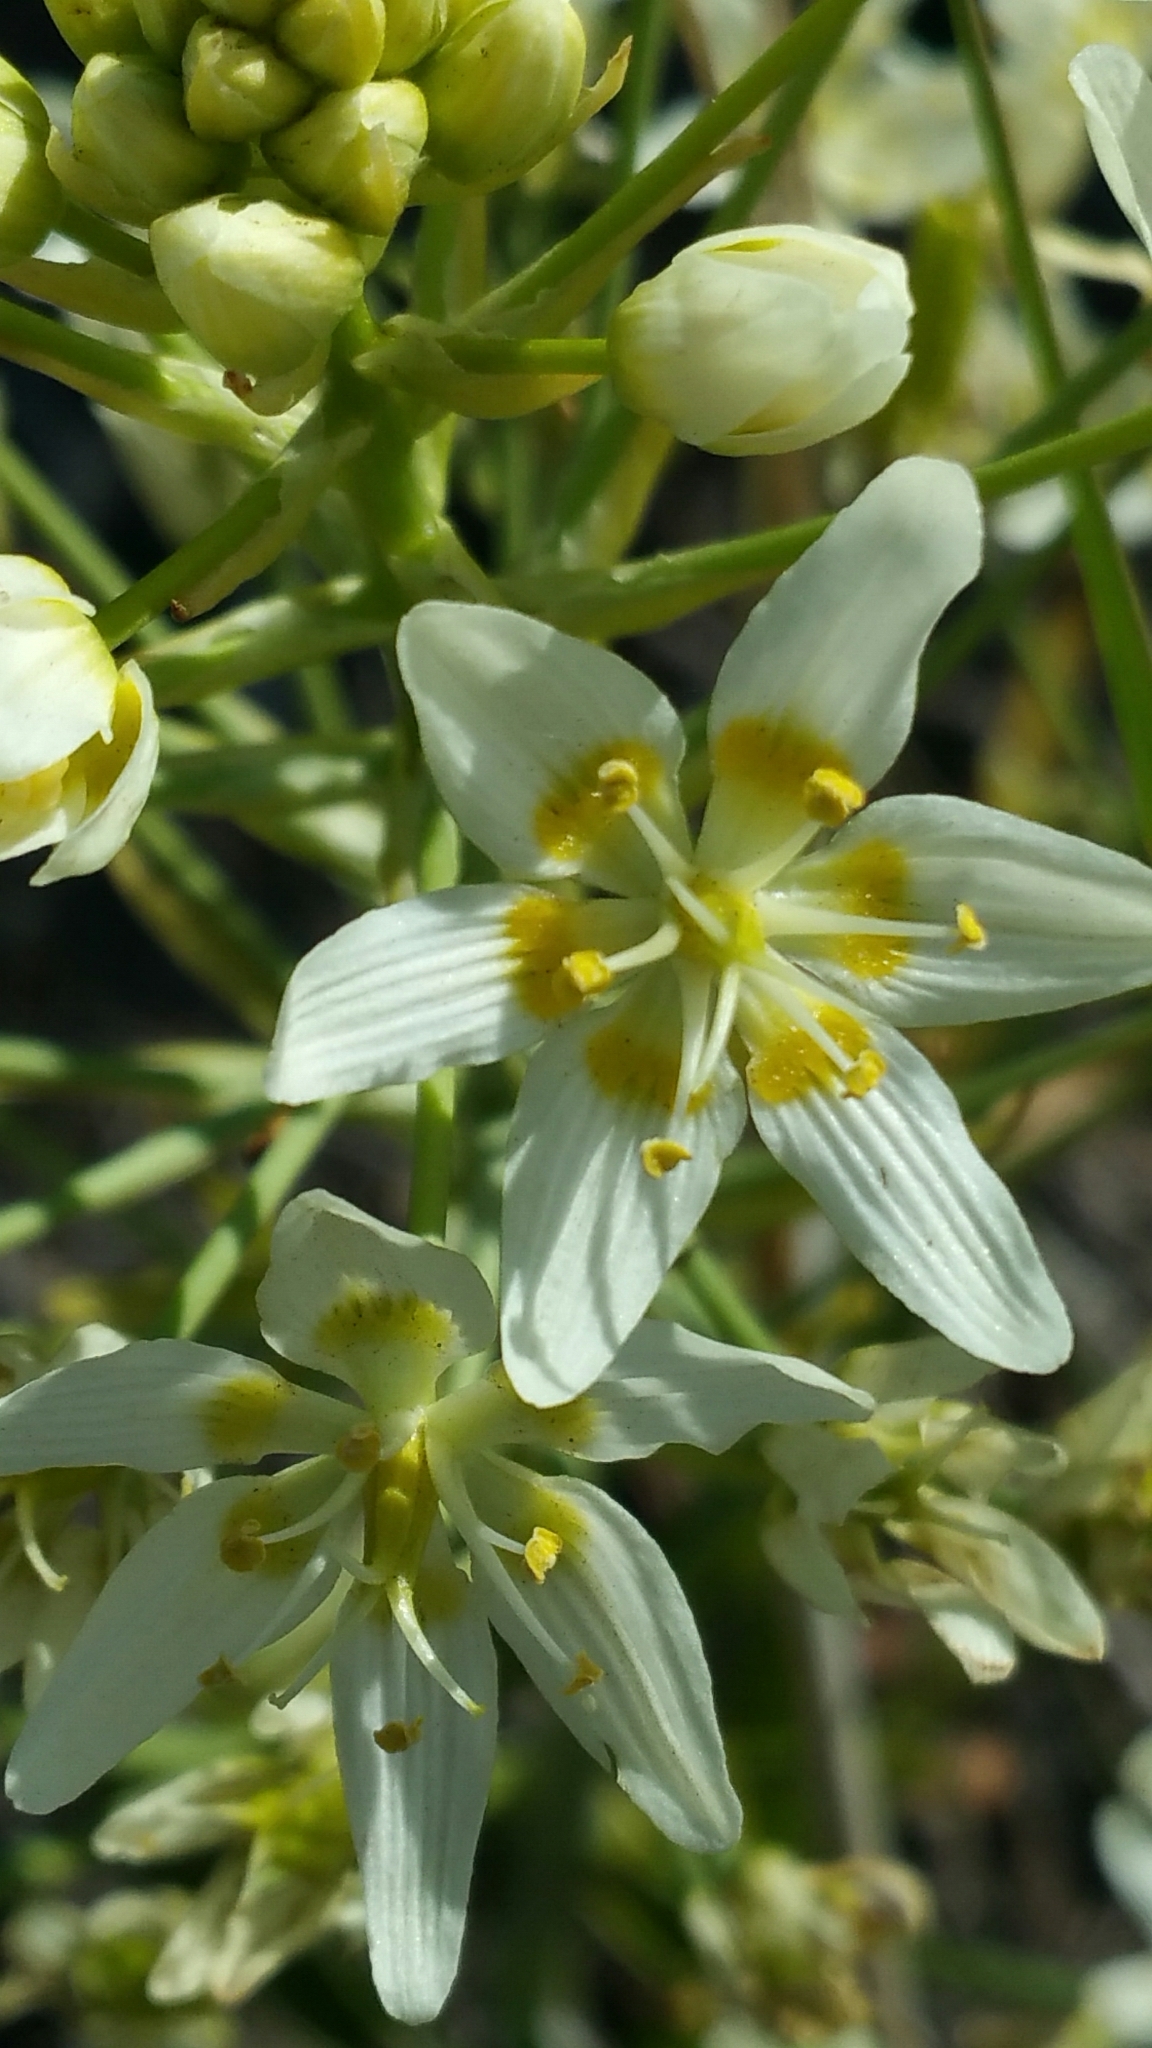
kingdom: Plantae
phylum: Tracheophyta
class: Liliopsida
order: Liliales
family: Melanthiaceae
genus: Toxicoscordion
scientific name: Toxicoscordion fremontii
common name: Fremont's death camas
